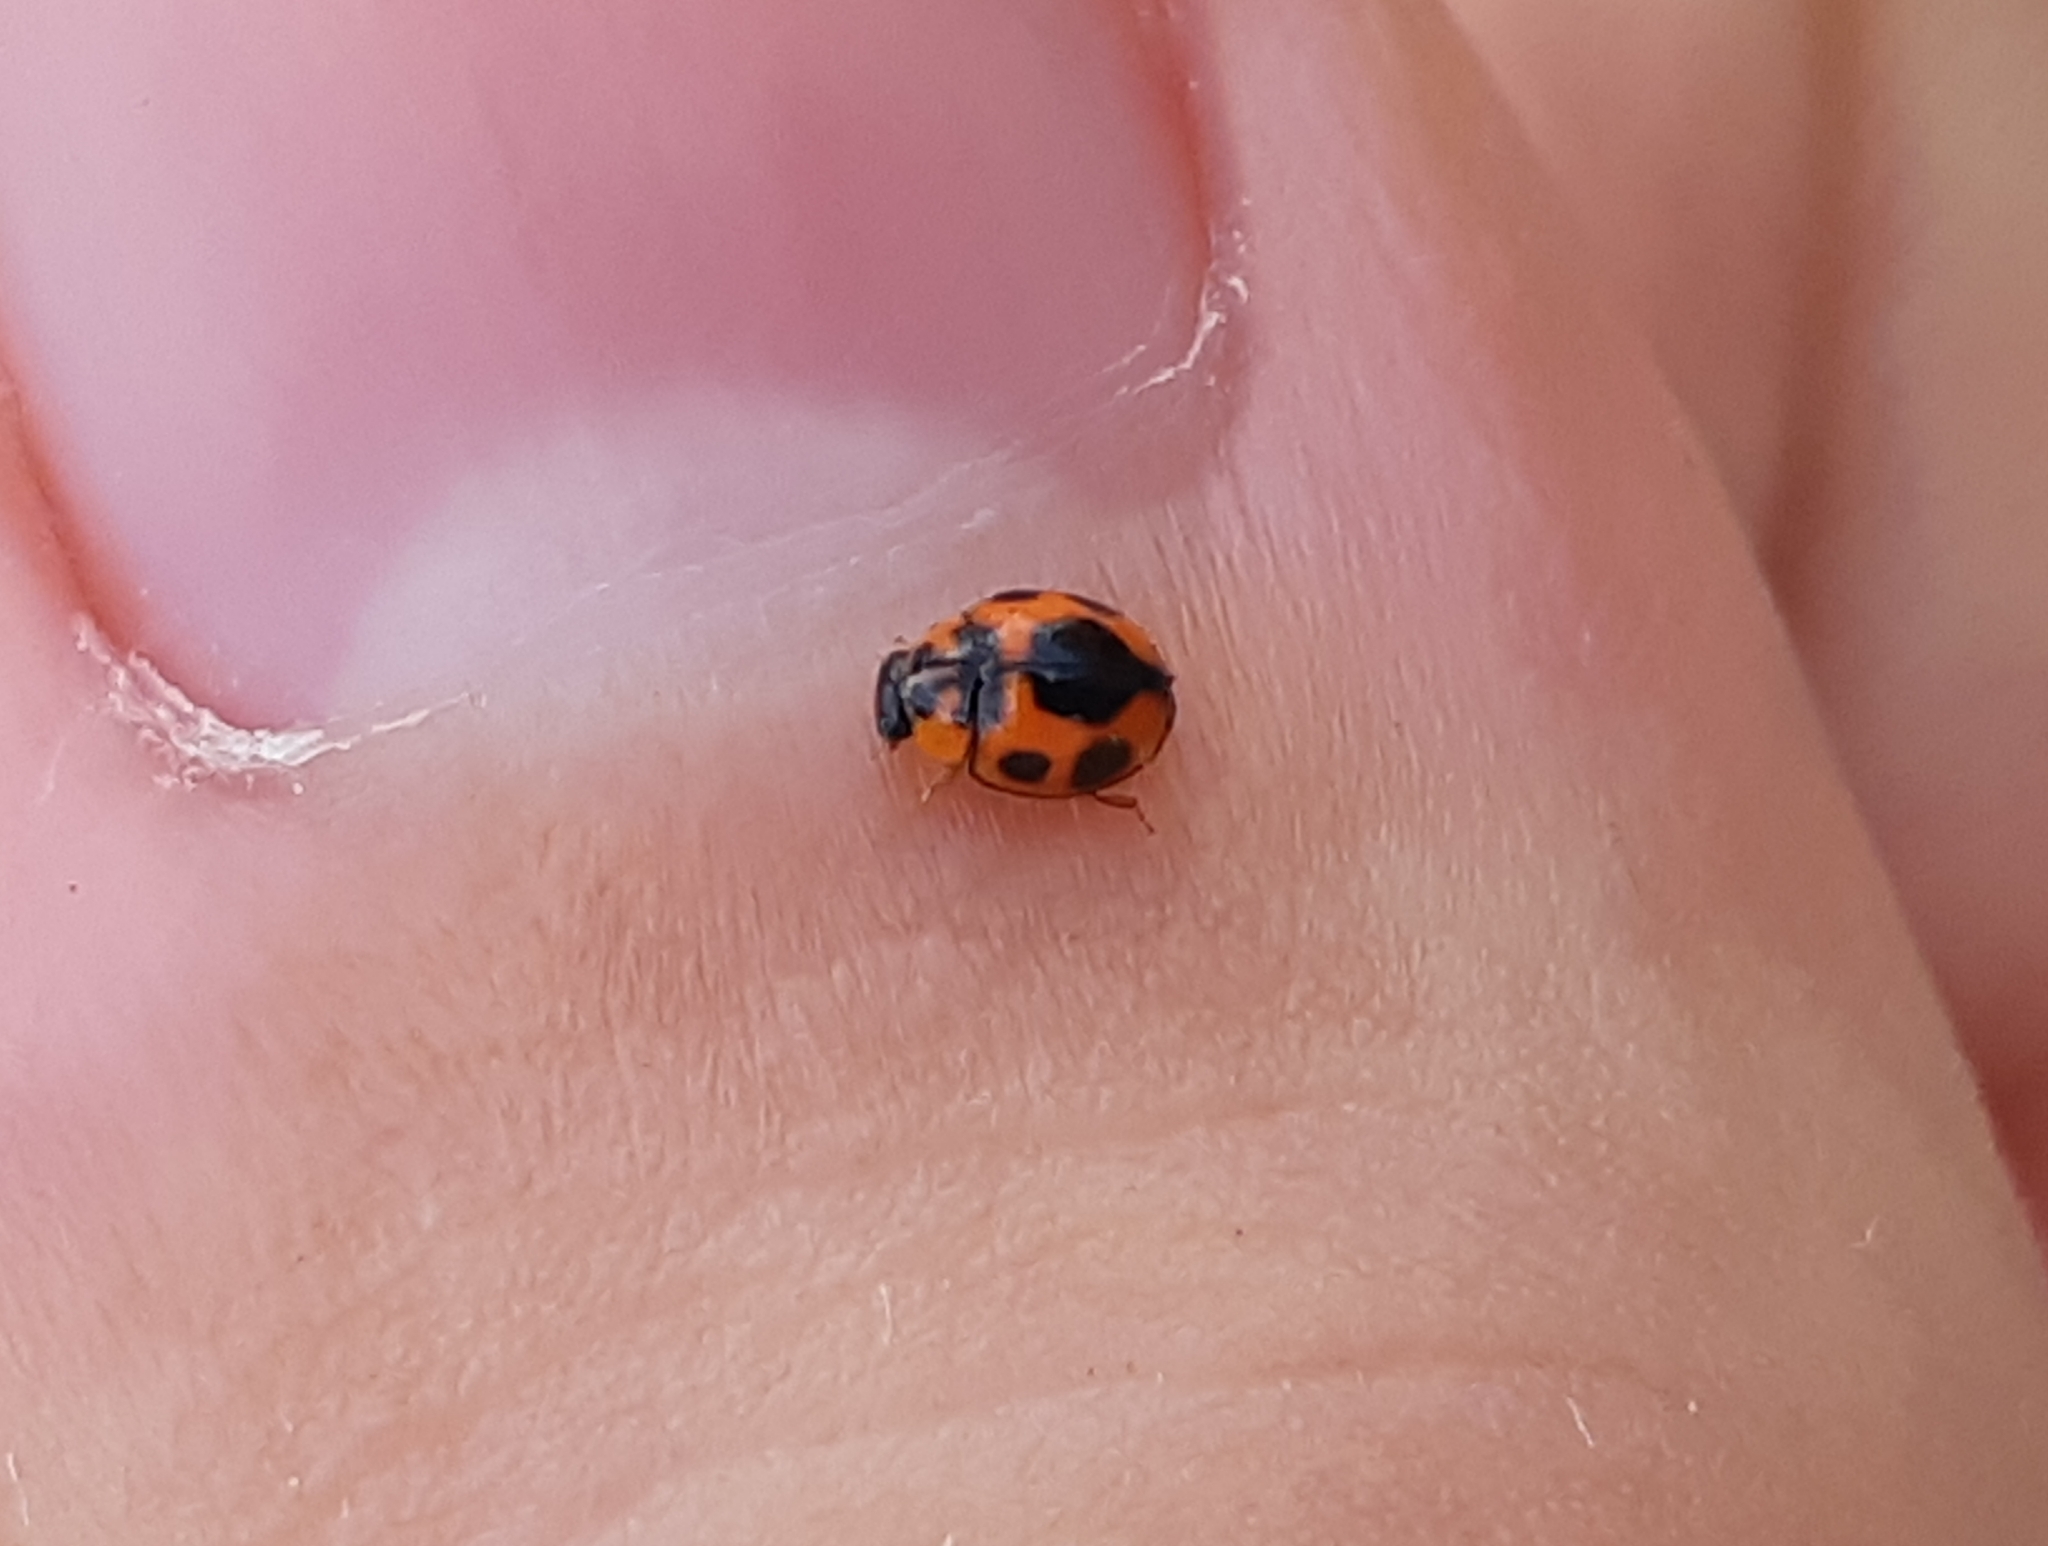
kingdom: Animalia
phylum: Arthropoda
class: Insecta
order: Coleoptera
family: Coccinellidae
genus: Hyperaspis
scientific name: Hyperaspis onerata
